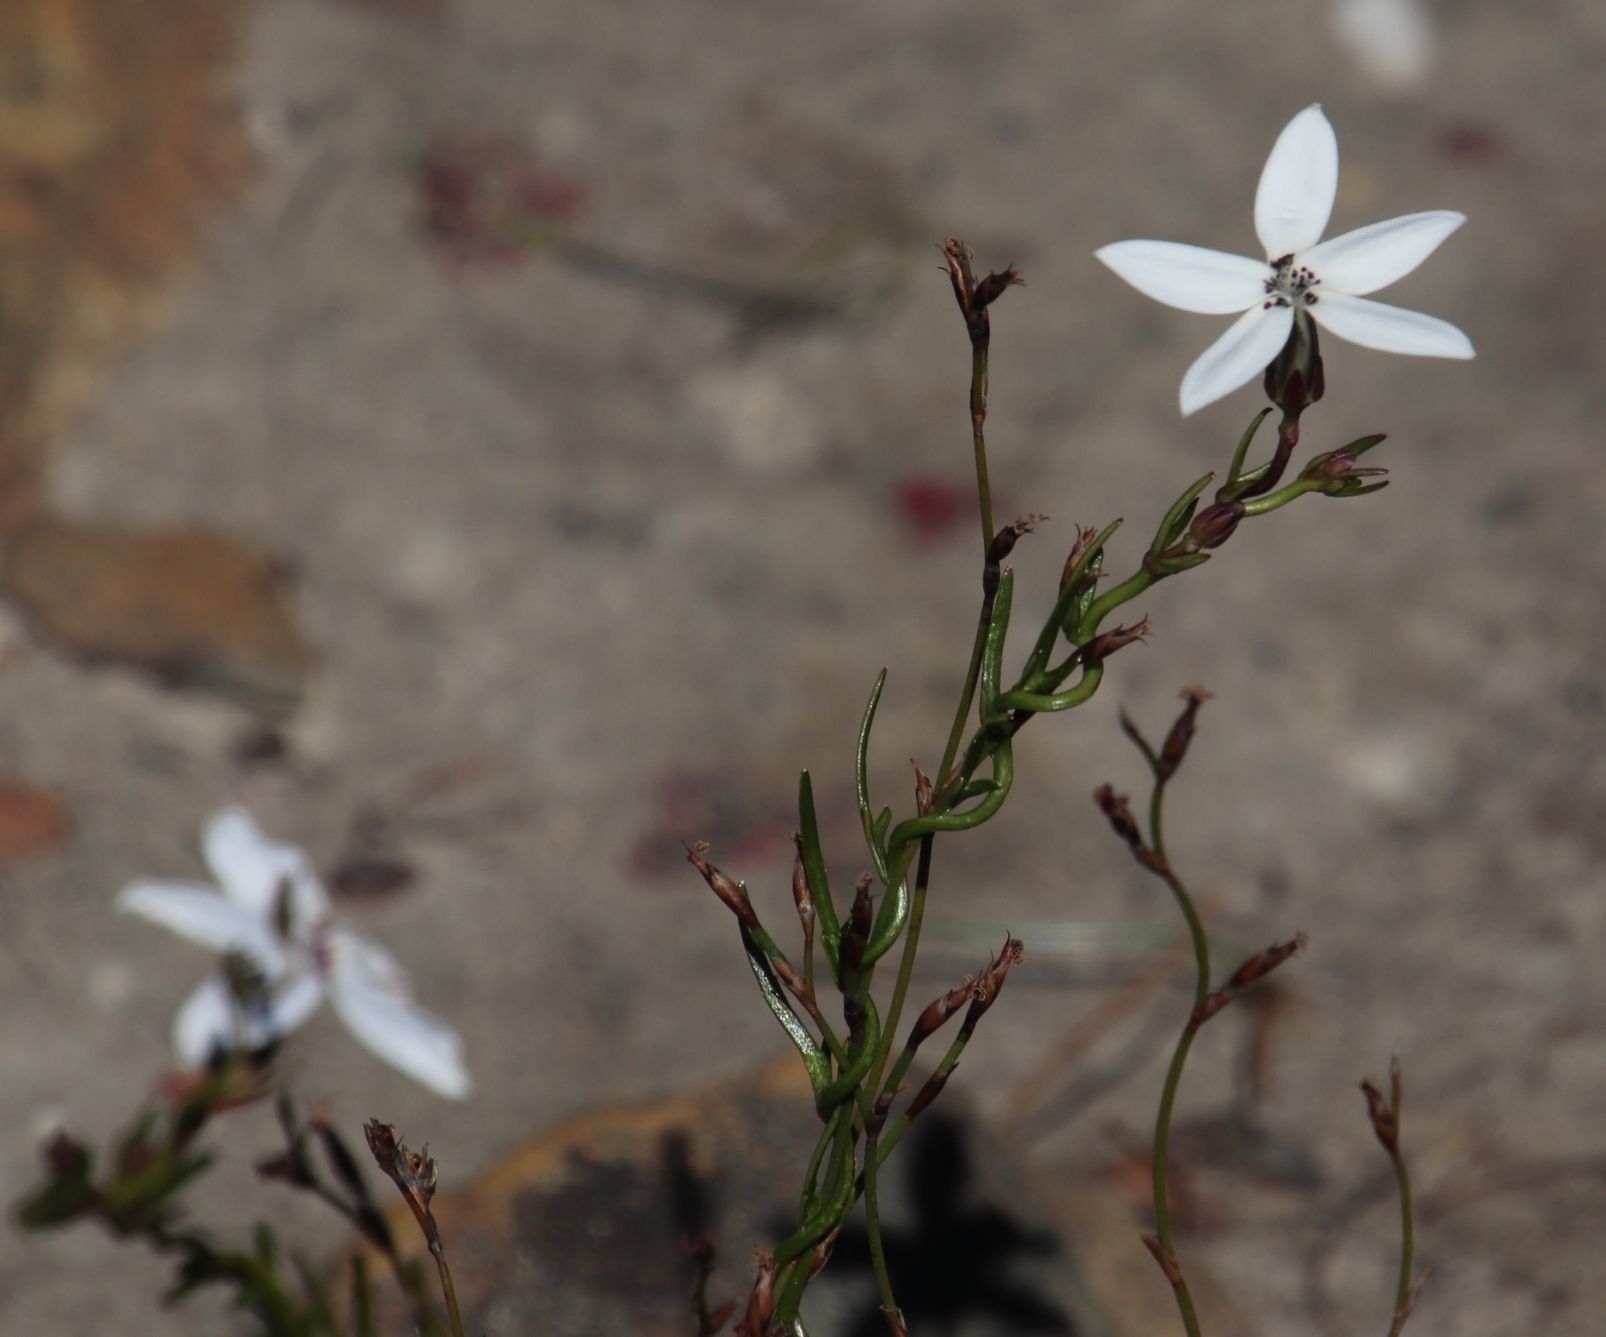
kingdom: Plantae
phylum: Tracheophyta
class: Magnoliopsida
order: Asterales
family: Campanulaceae
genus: Cyphia
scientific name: Cyphia volubilis
